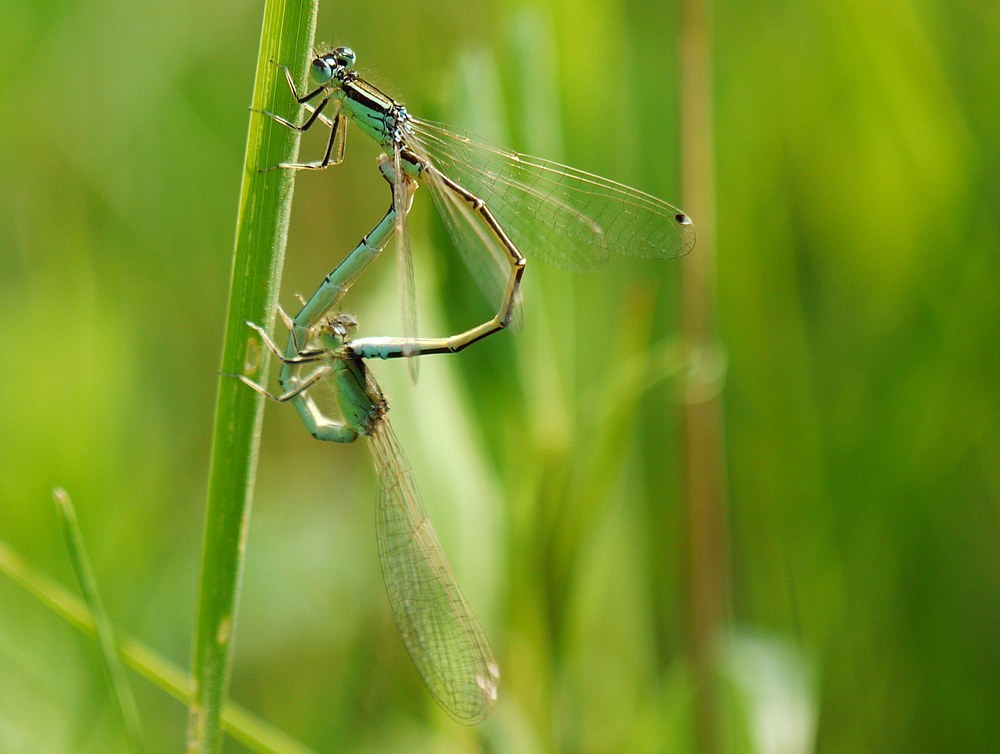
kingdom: Animalia
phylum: Arthropoda
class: Insecta
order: Odonata
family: Coenagrionidae
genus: Ischnura
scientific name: Ischnura pumilio
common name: Scarce blue-tailed damselfly
